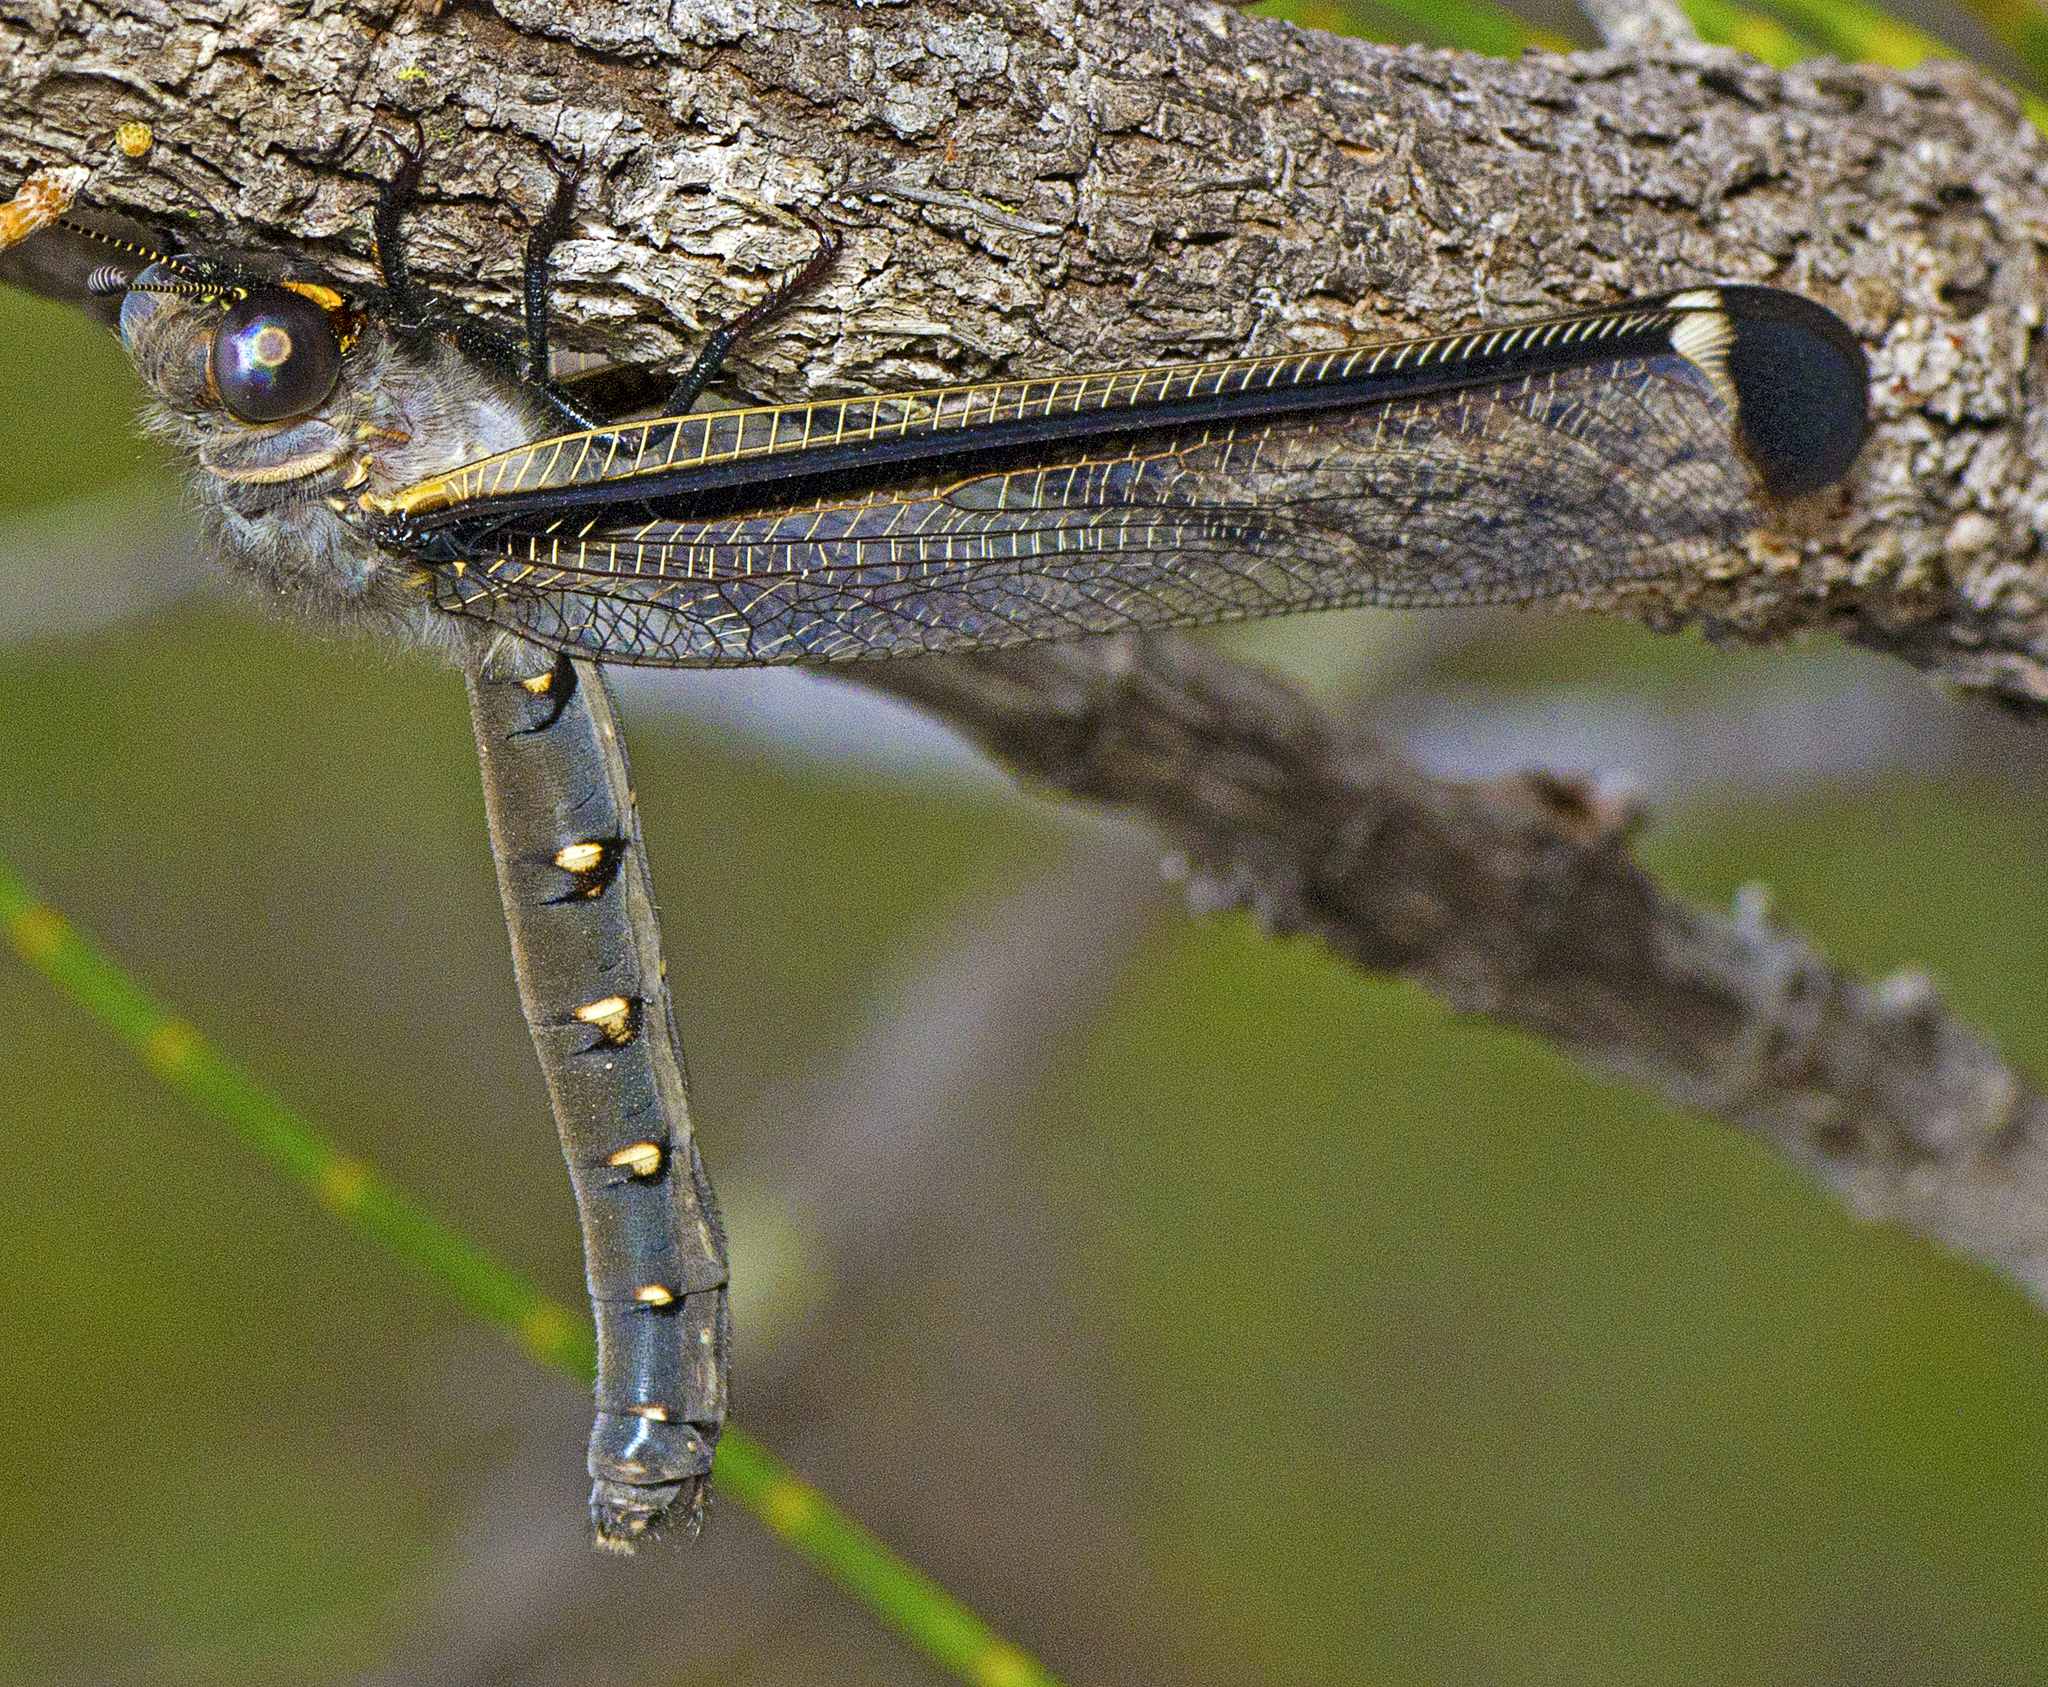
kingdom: Animalia
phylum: Arthropoda
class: Insecta
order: Neuroptera
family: Myrmeleontidae
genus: Stilbopteryx
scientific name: Stilbopteryx costalis
